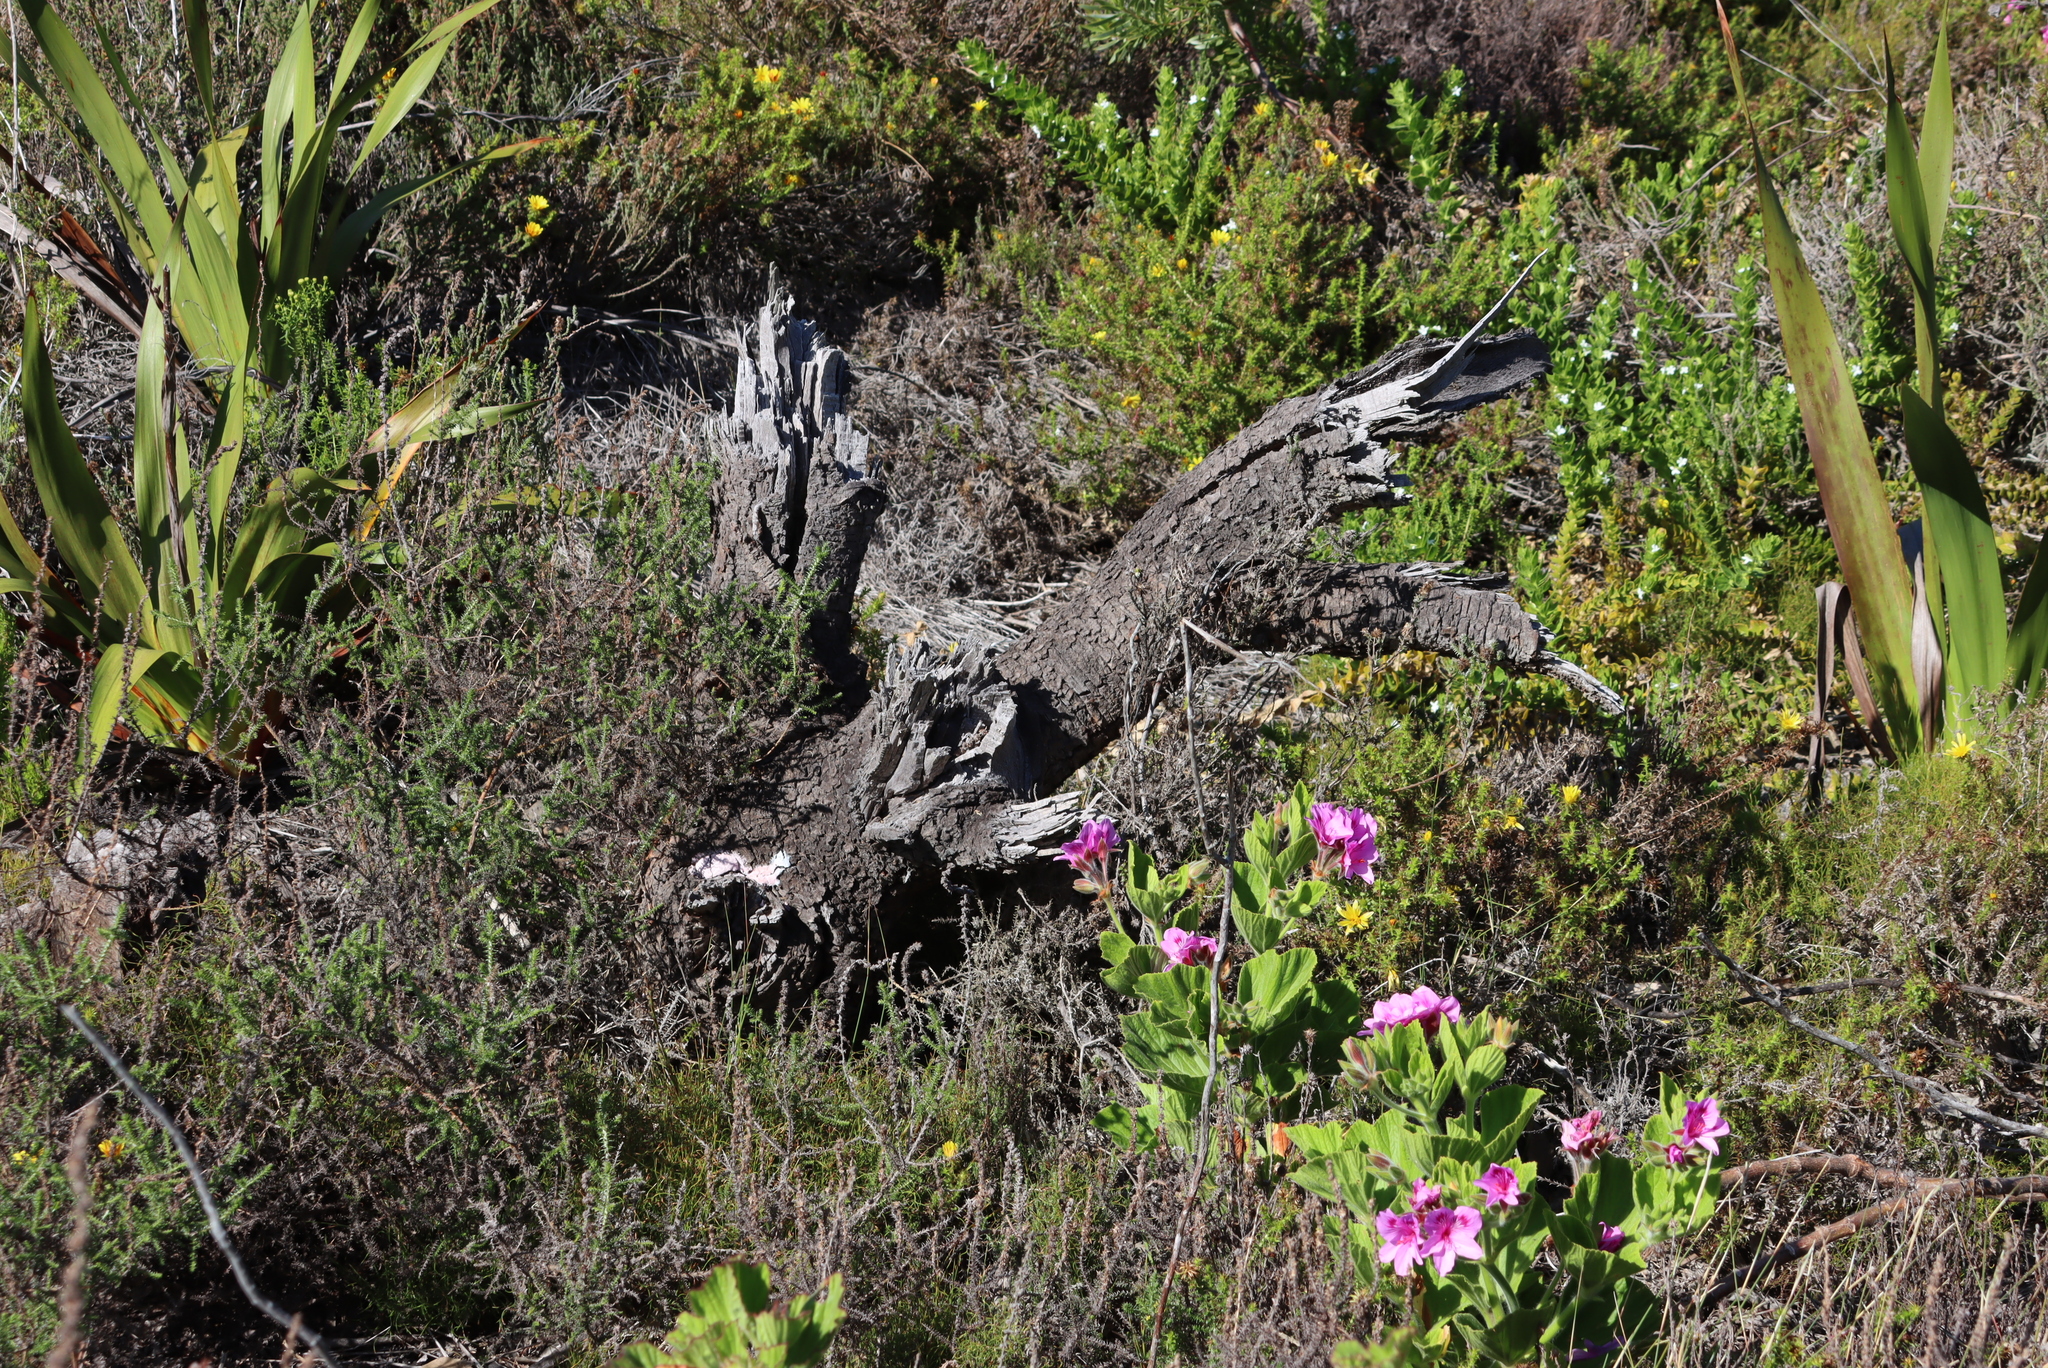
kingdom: Plantae
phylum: Tracheophyta
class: Magnoliopsida
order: Geraniales
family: Geraniaceae
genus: Pelargonium
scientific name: Pelargonium cucullatum
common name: Tree pelargonium
